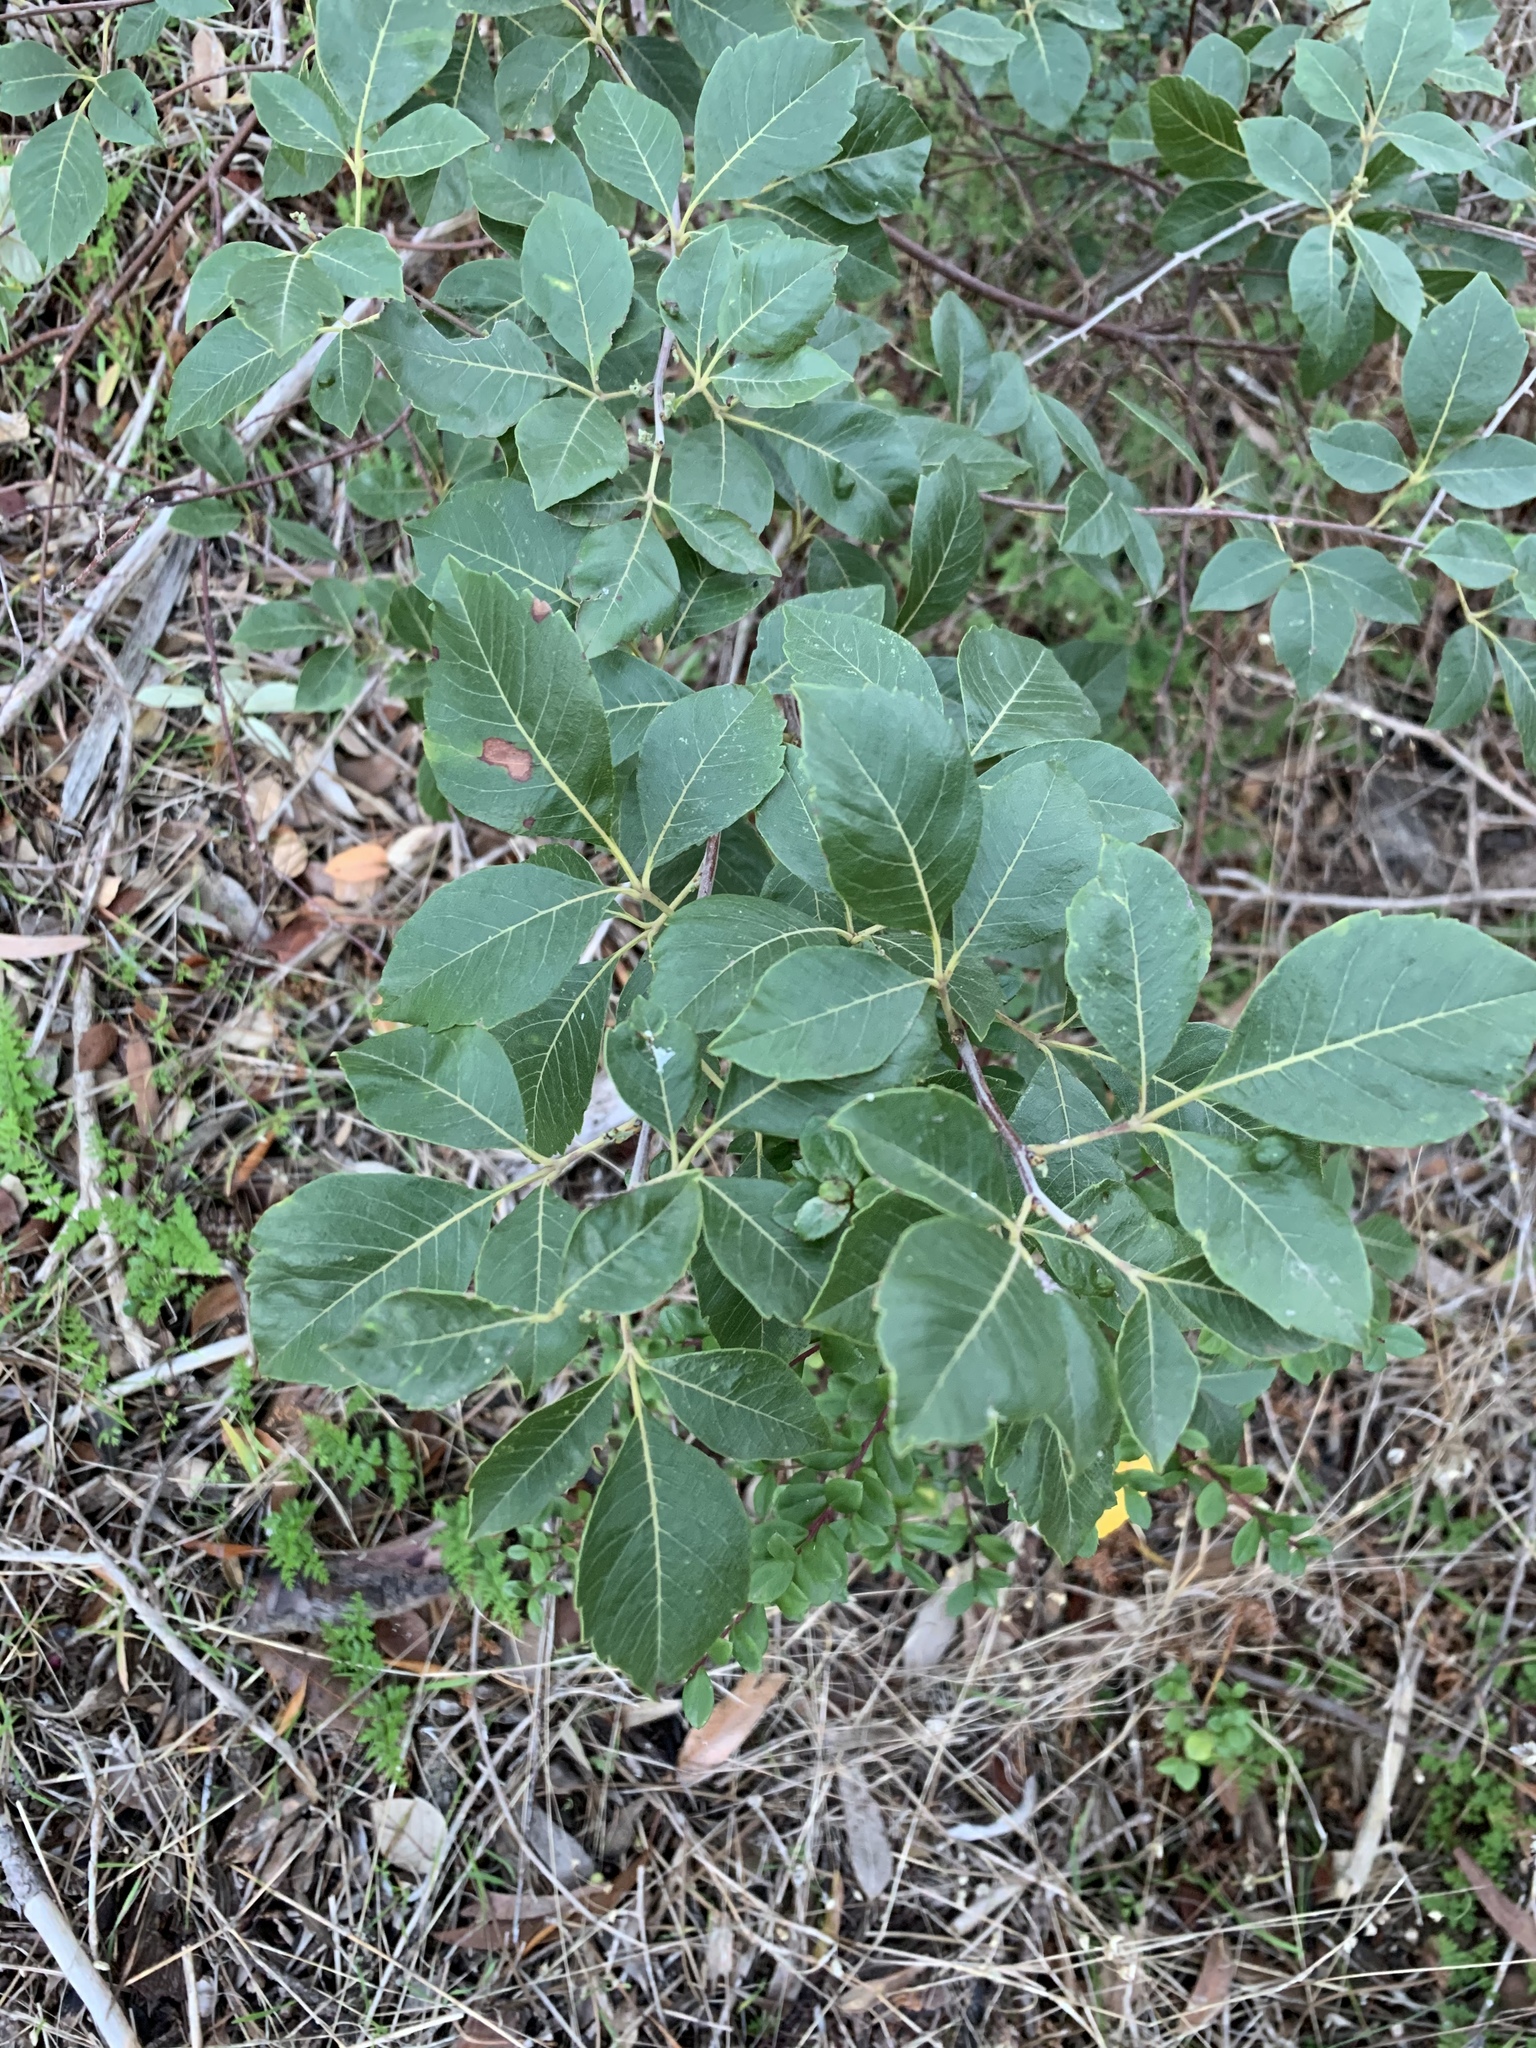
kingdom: Plantae
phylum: Tracheophyta
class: Magnoliopsida
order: Sapindales
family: Anacardiaceae
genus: Searsia
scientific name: Searsia tomentosa
